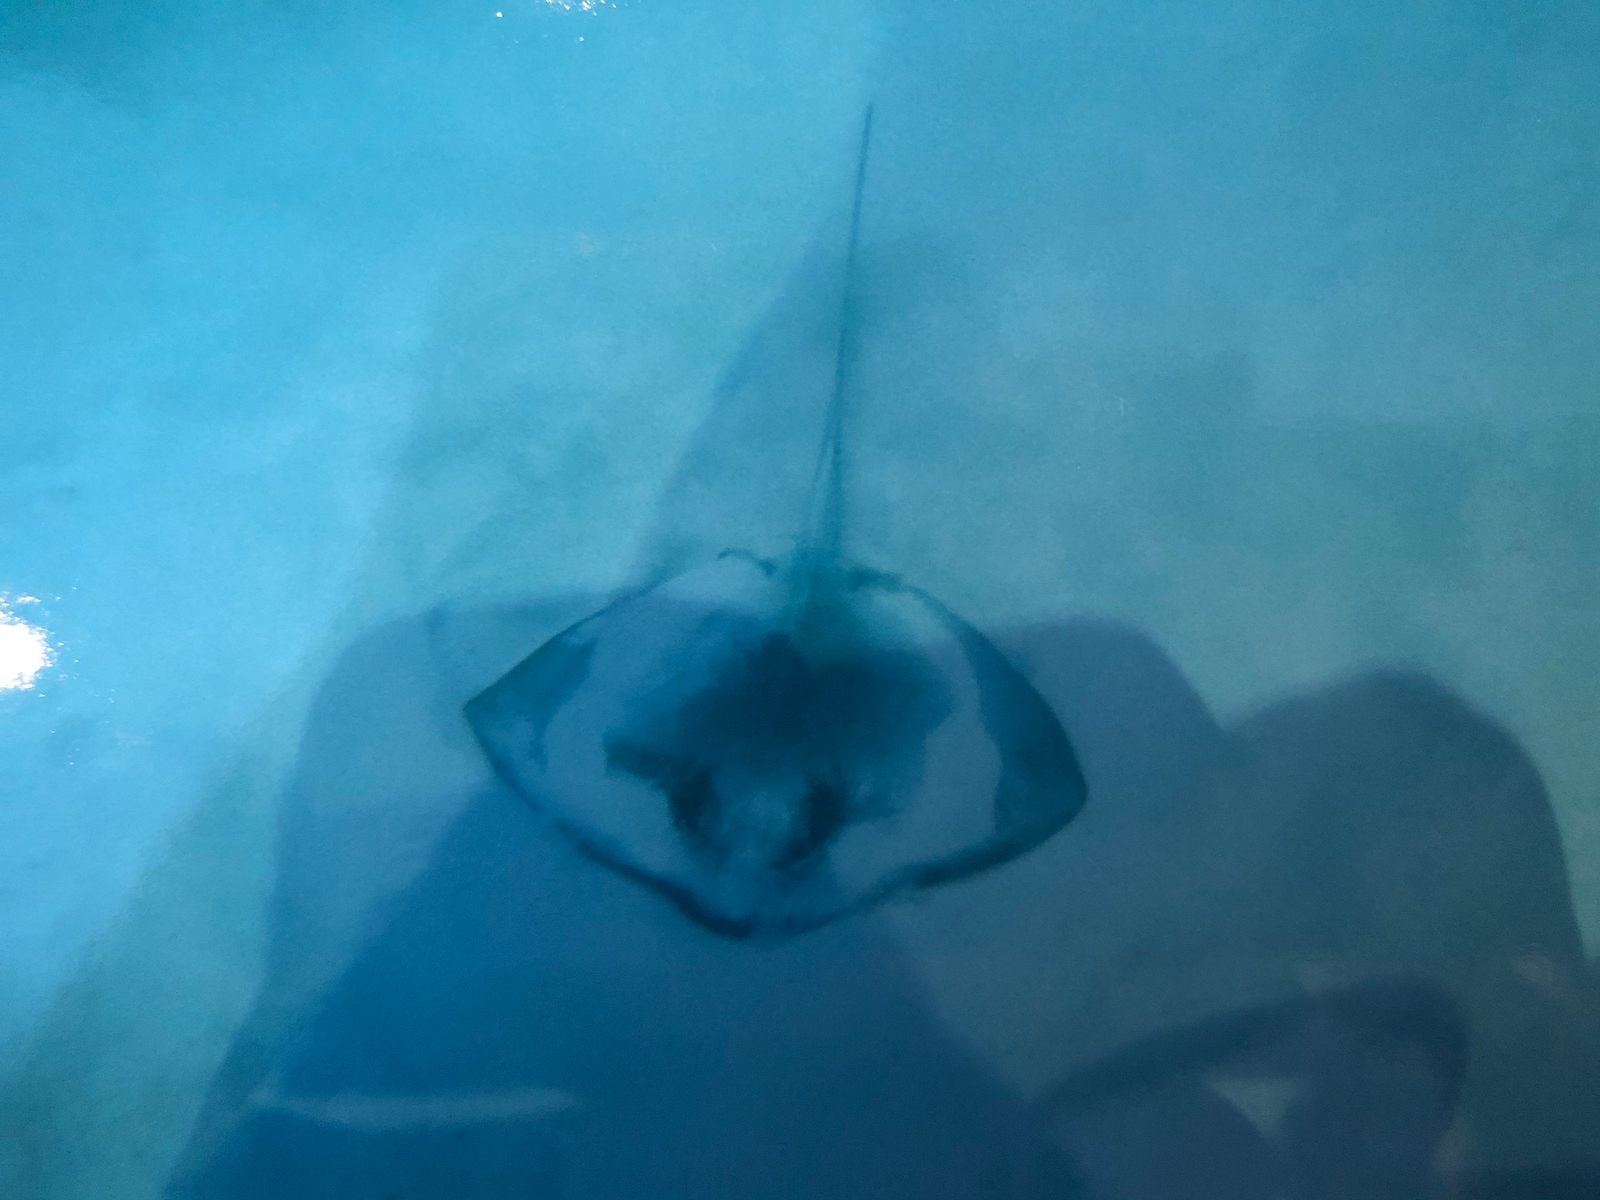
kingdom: Animalia
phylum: Chordata
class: Elasmobranchii
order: Myliobatiformes
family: Dasyatidae
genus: Hypanus
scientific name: Hypanus americanus
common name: Southern stingray
